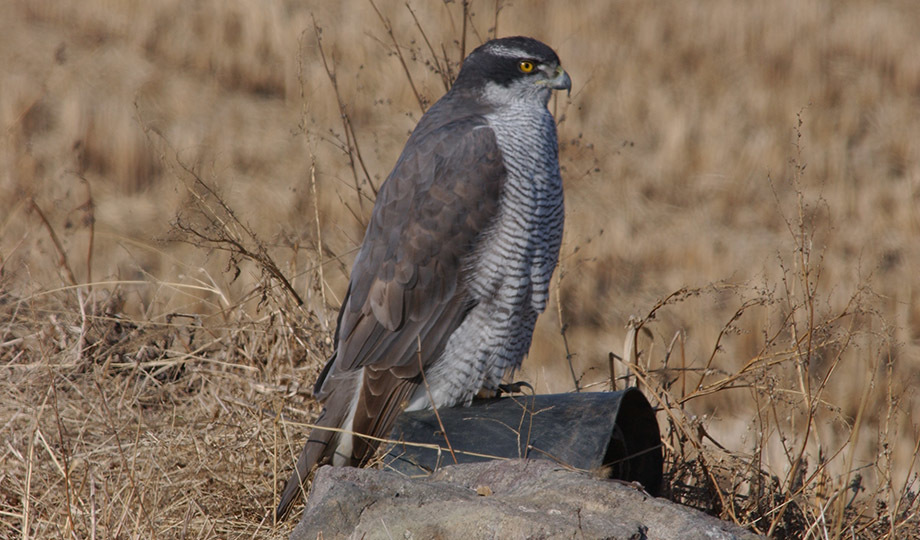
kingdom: Animalia
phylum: Chordata
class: Aves
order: Accipitriformes
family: Accipitridae
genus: Accipiter
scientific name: Accipiter gentilis
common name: Northern goshawk
